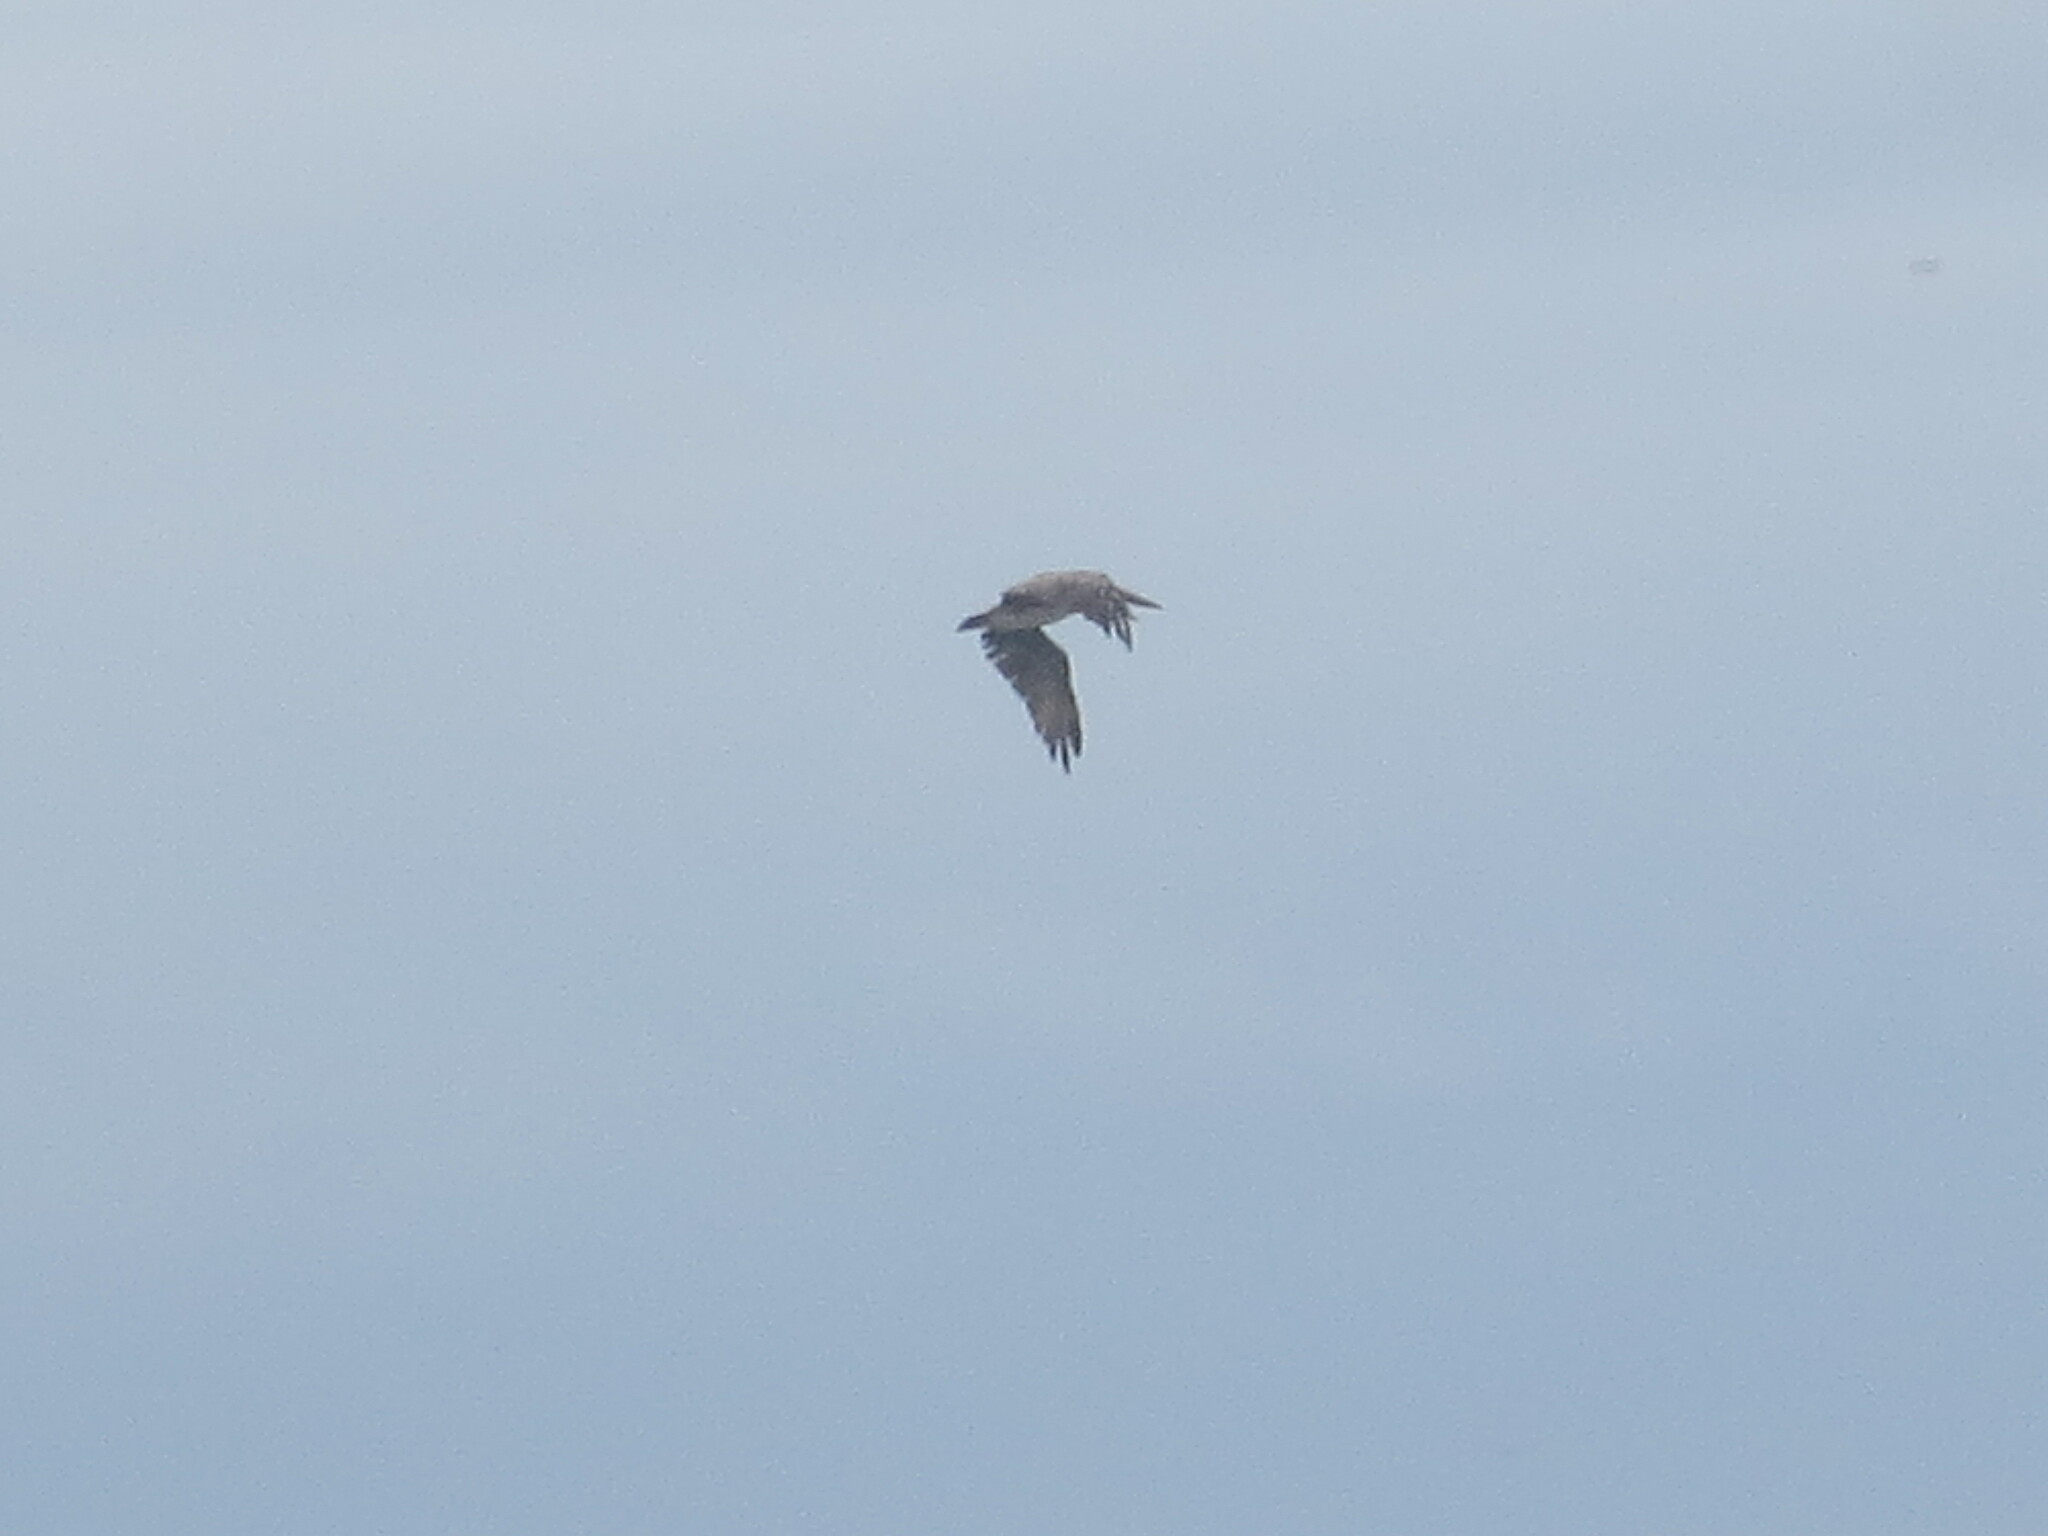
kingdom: Animalia
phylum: Chordata
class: Aves
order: Pelecaniformes
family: Pelecanidae
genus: Pelecanus
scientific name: Pelecanus occidentalis
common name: Brown pelican
